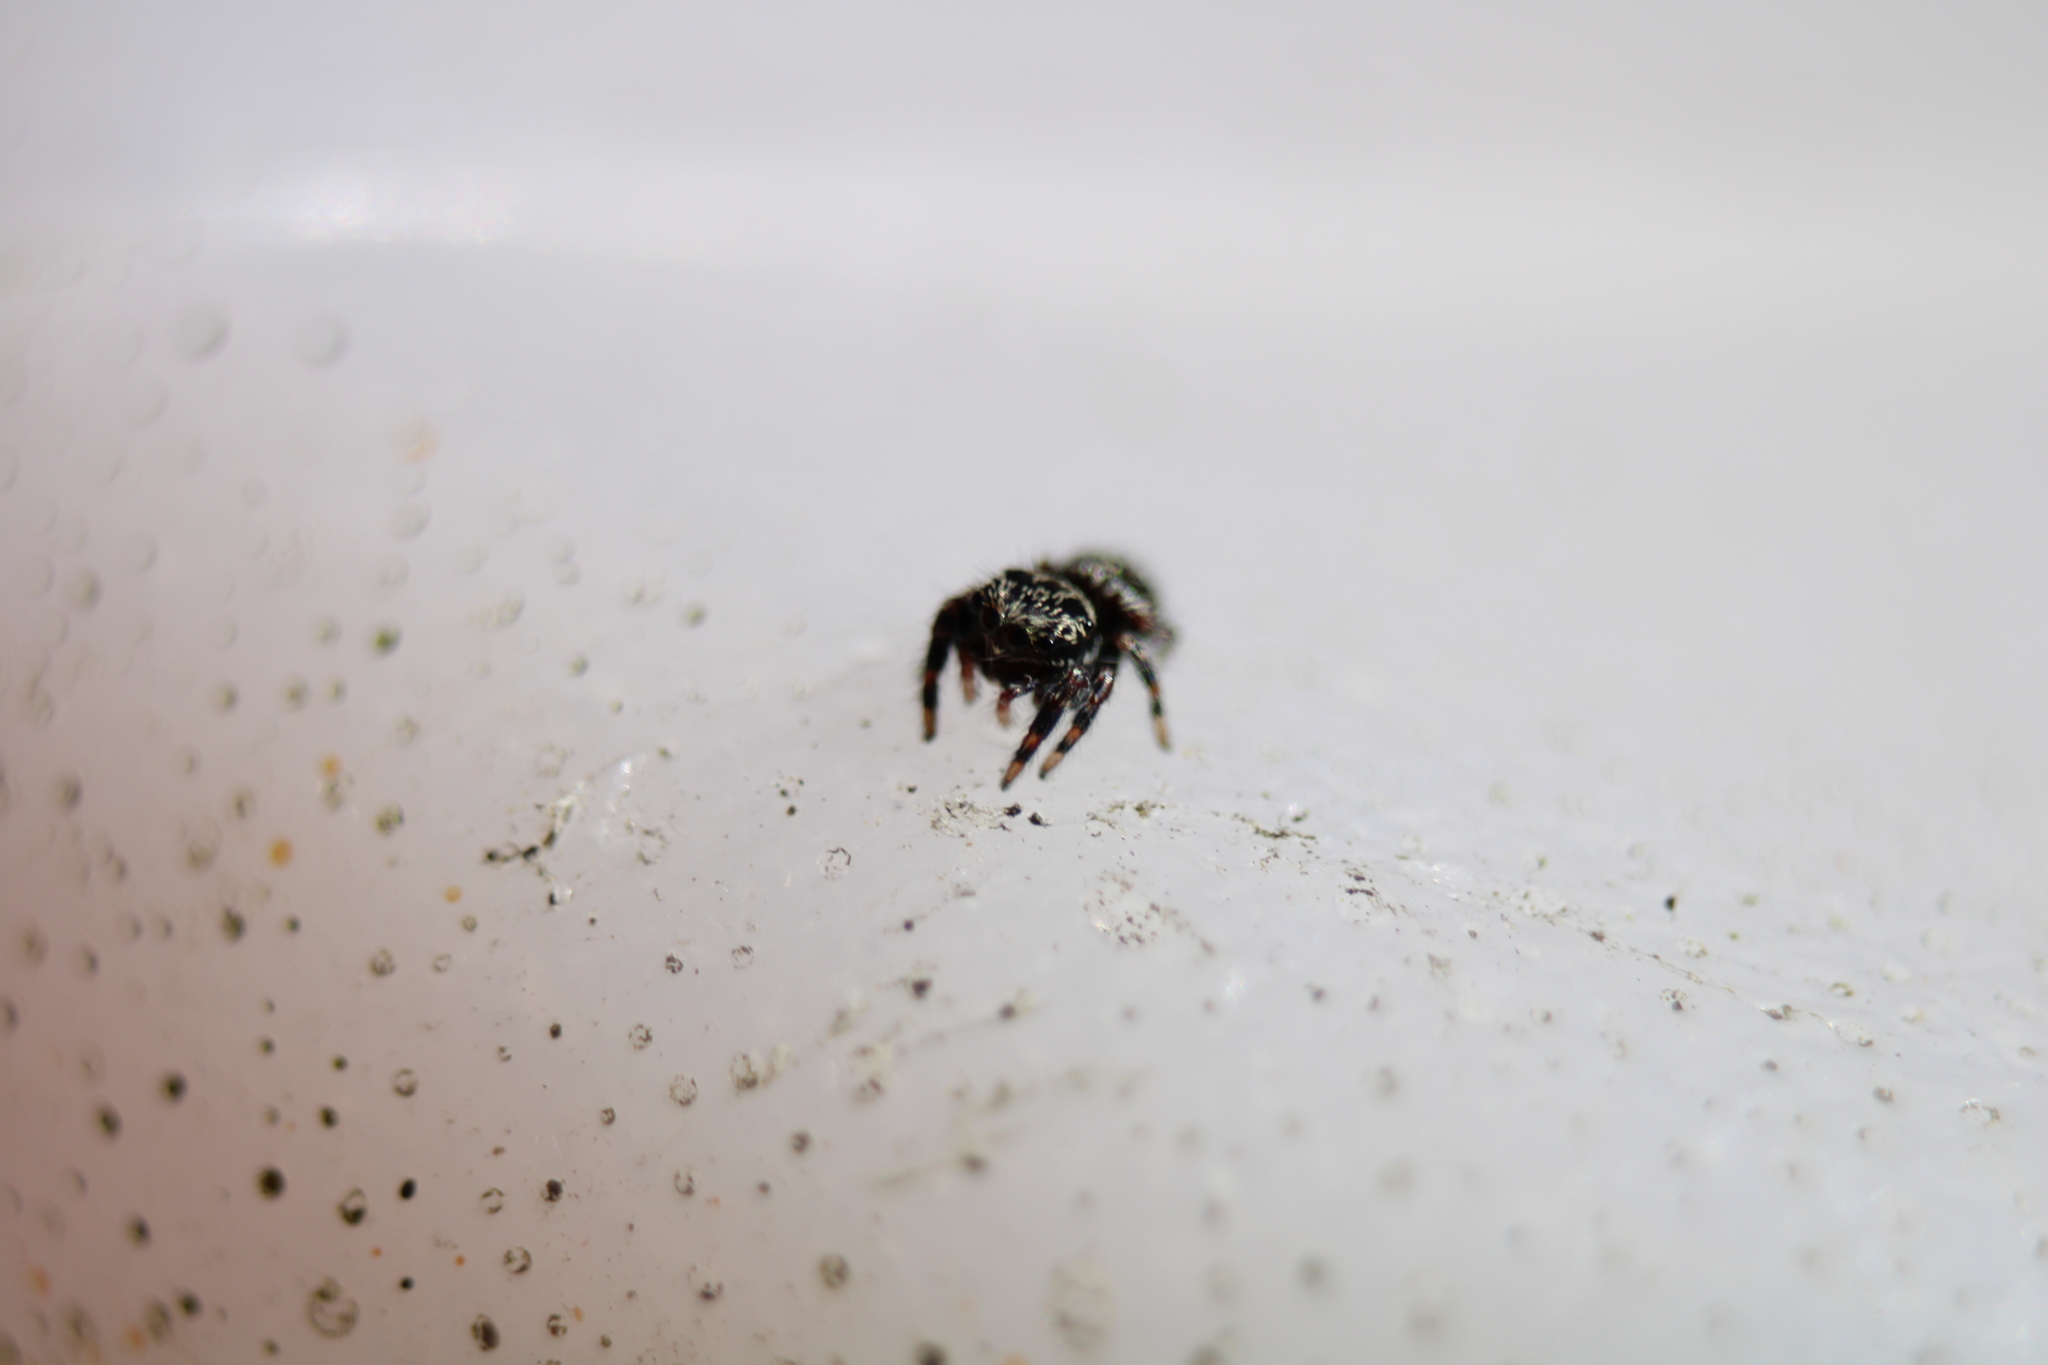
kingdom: Animalia
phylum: Arthropoda
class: Arachnida
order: Araneae
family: Salticidae
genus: Phidippus
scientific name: Phidippus audax
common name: Bold jumper
